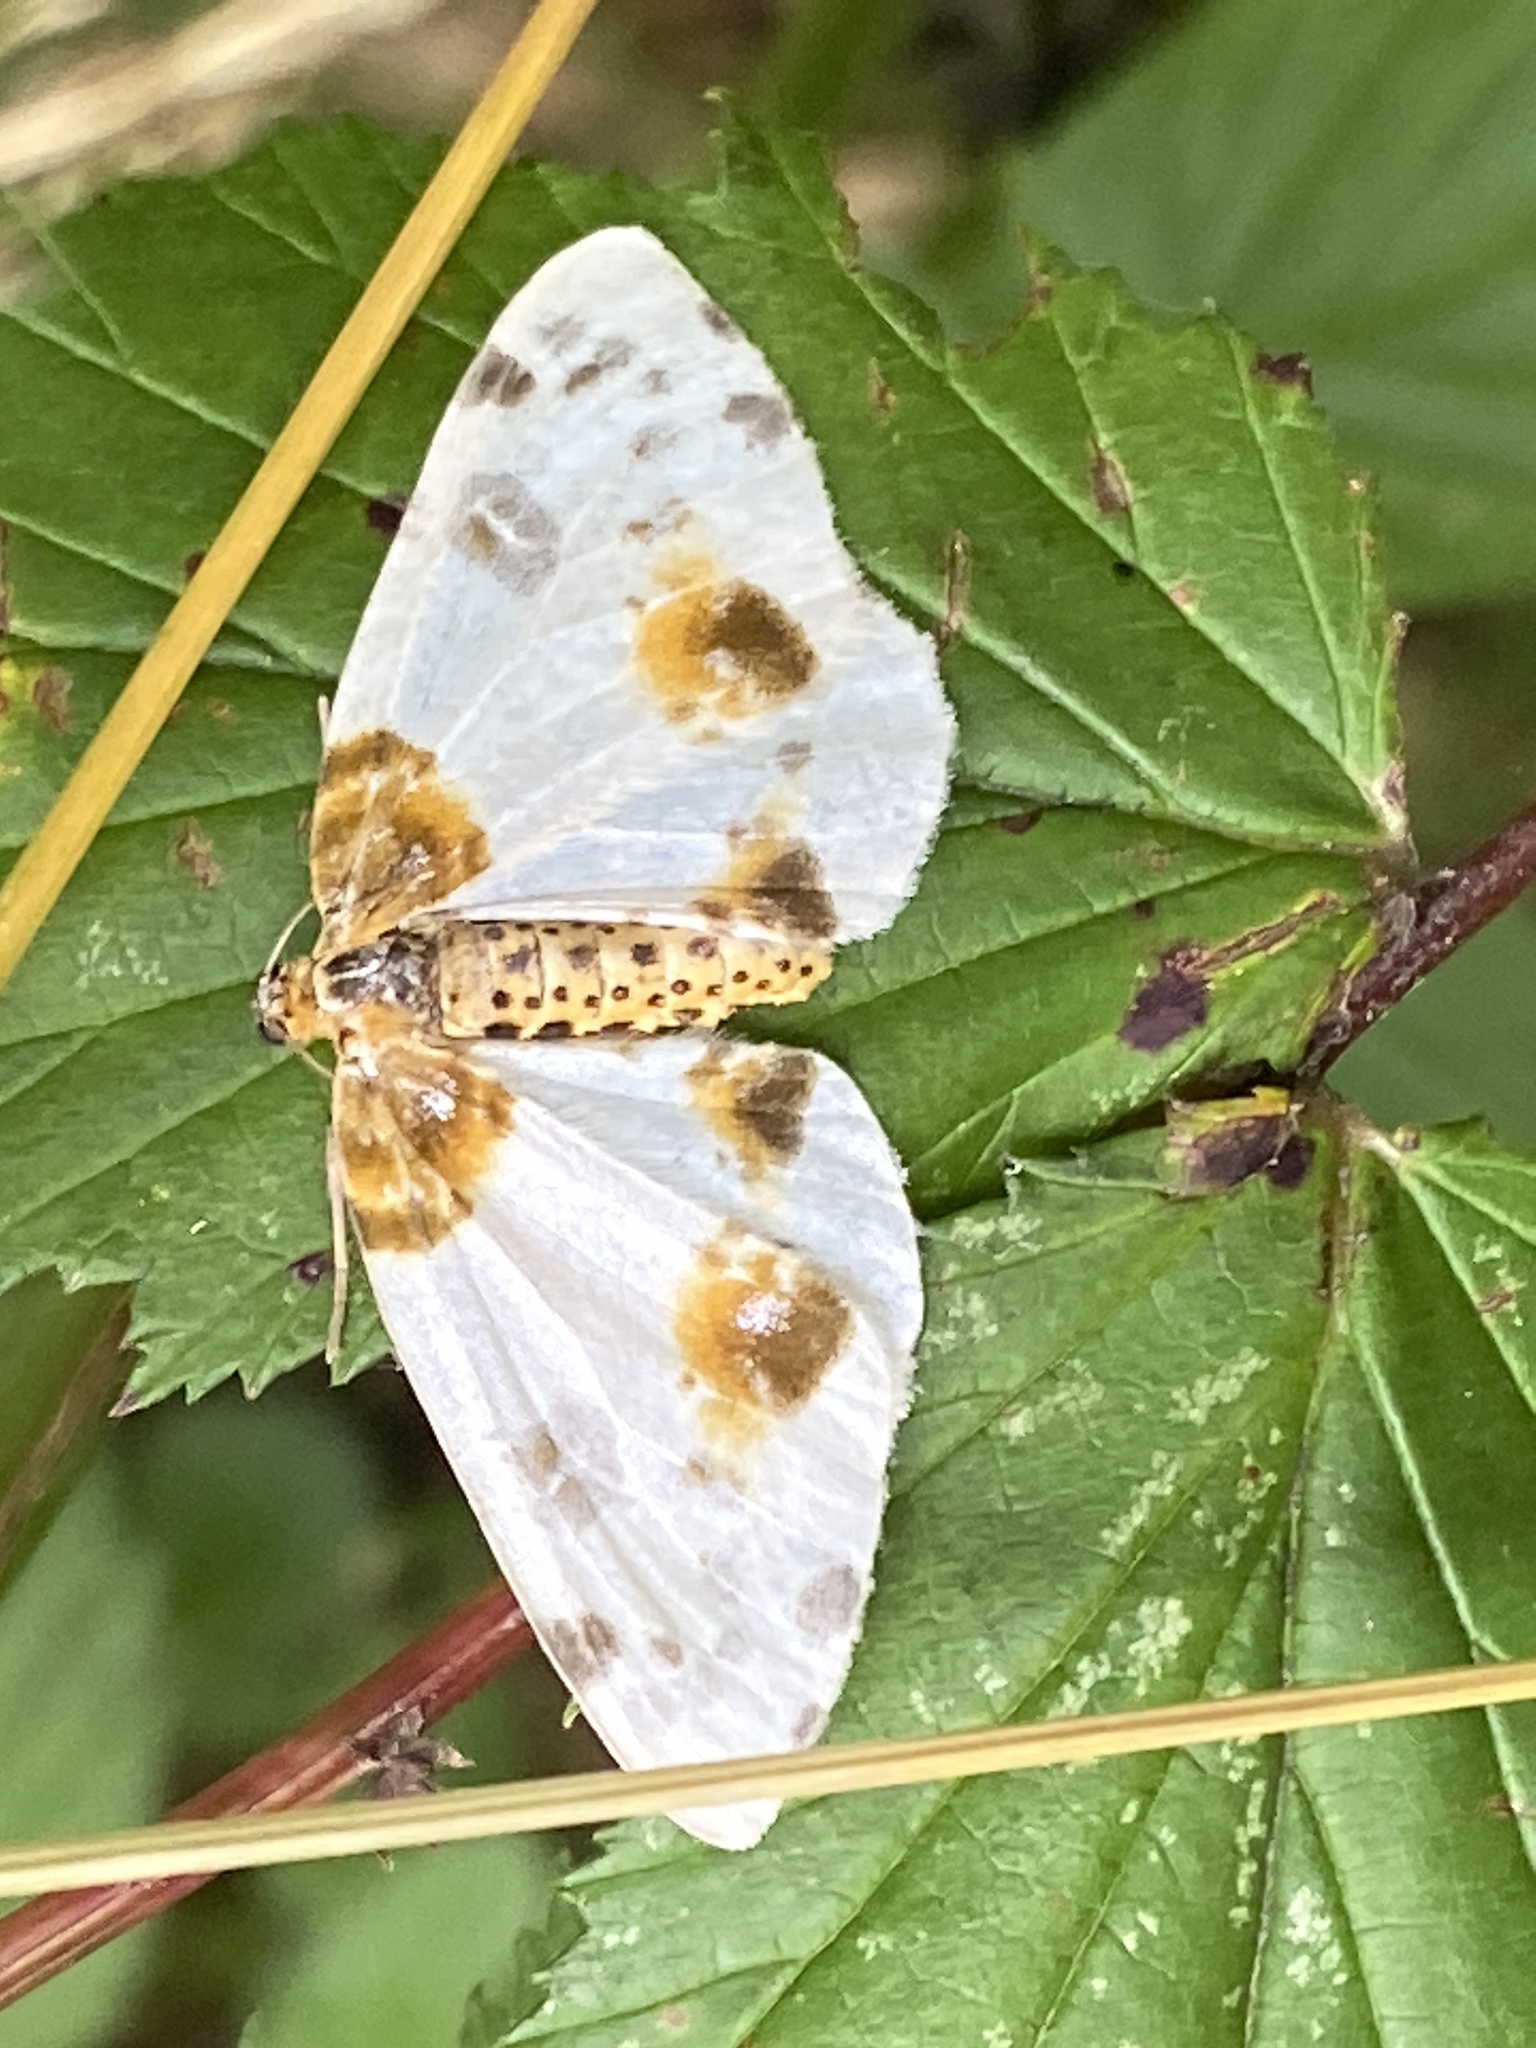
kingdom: Animalia
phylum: Arthropoda
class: Insecta
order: Lepidoptera
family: Geometridae
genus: Abraxas
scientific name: Abraxas sylvata
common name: Clouded magpie
